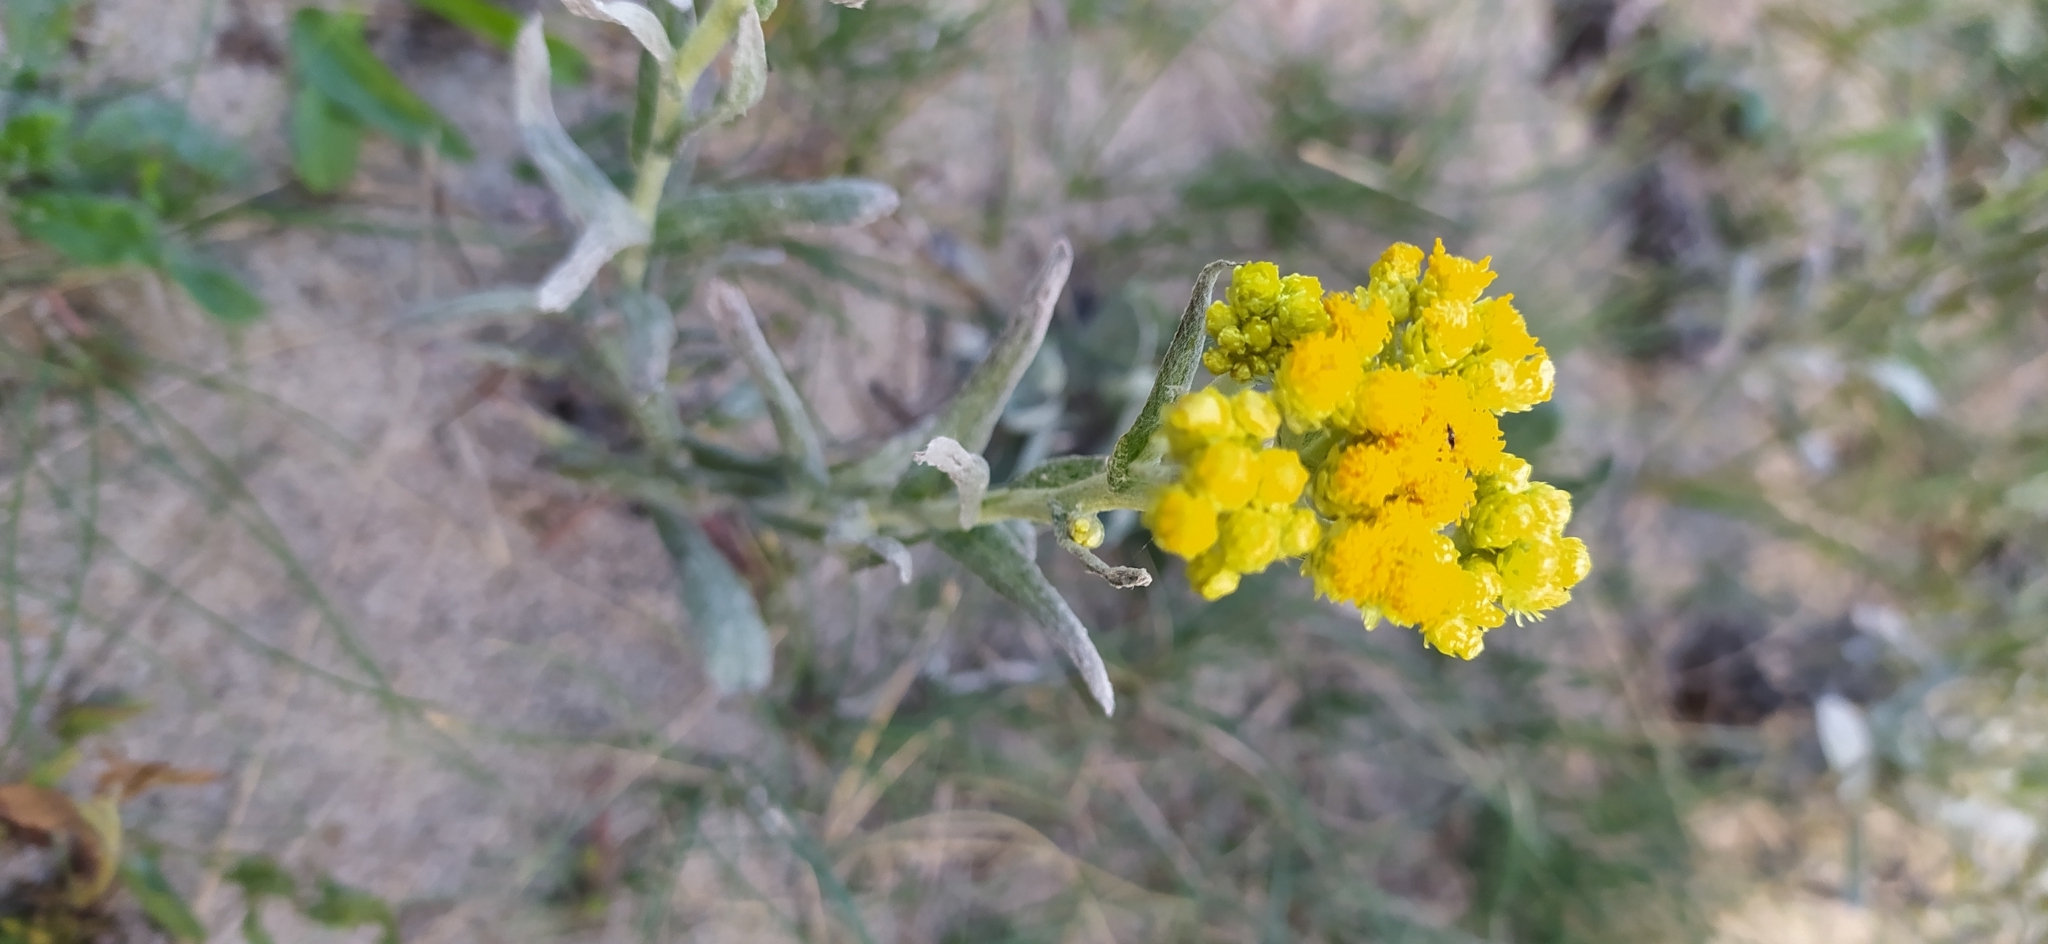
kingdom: Plantae
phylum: Tracheophyta
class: Magnoliopsida
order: Asterales
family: Asteraceae
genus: Helichrysum
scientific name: Helichrysum arenarium
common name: Strawflower
